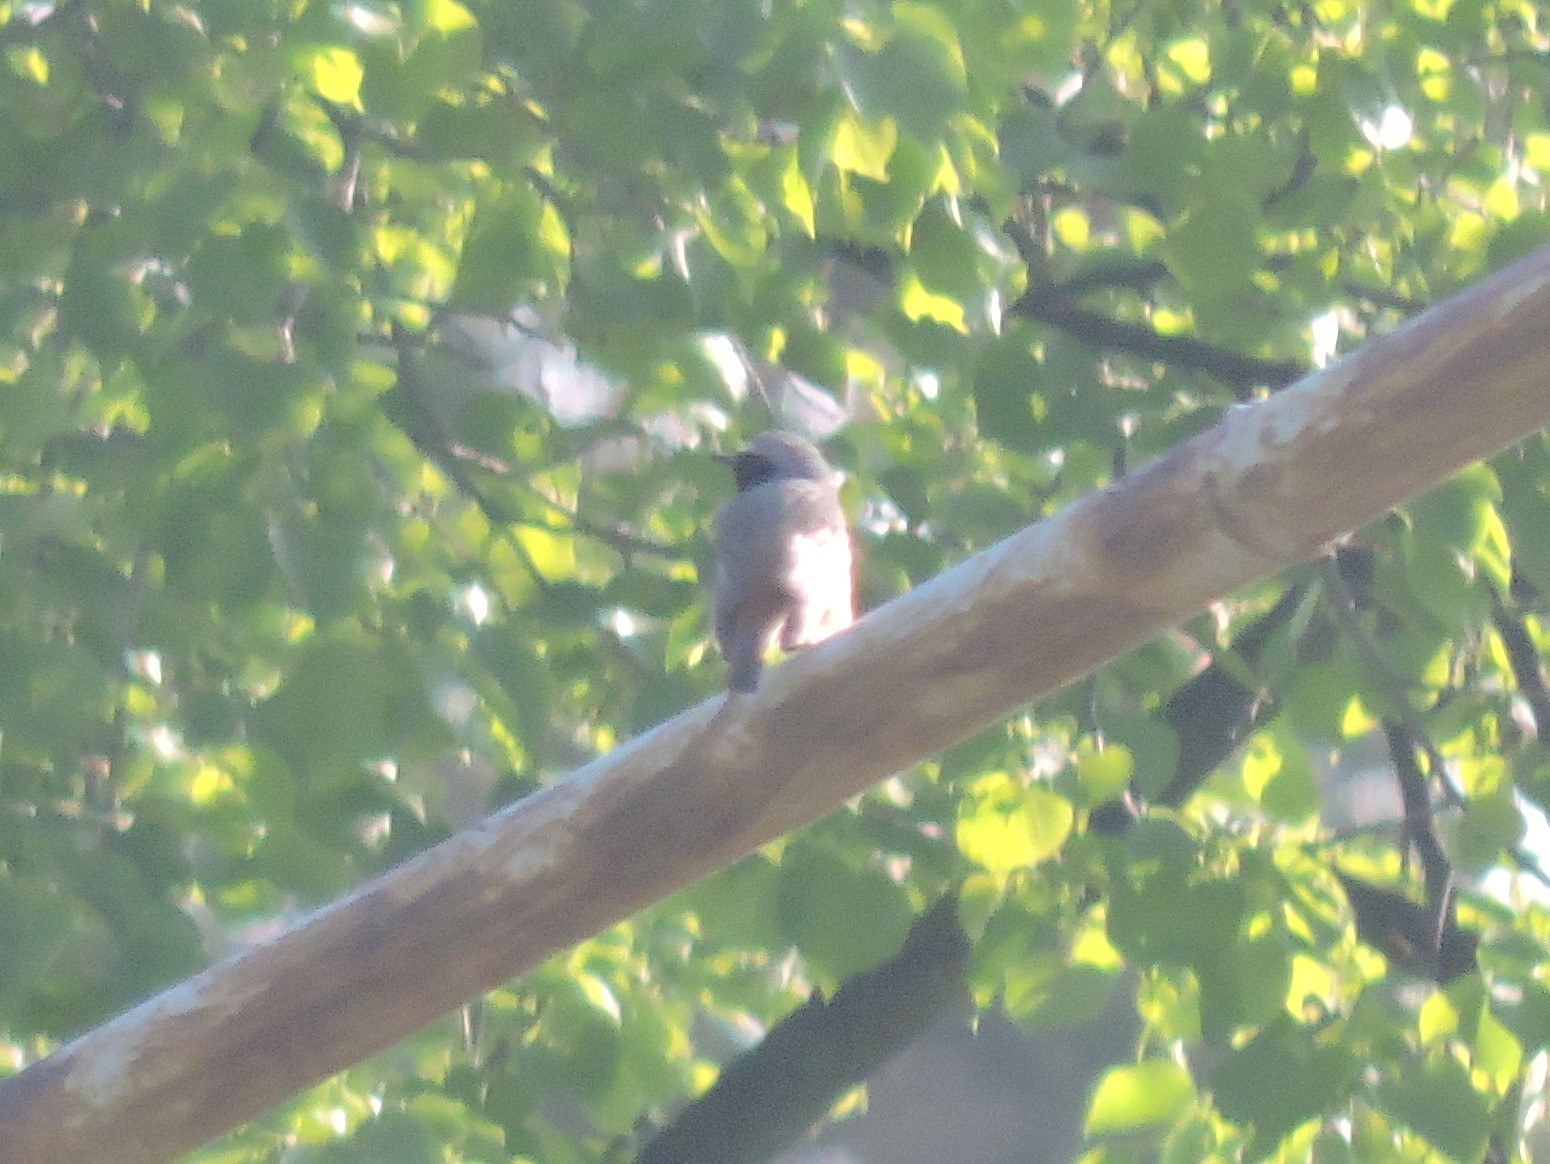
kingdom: Animalia
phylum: Chordata
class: Aves
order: Passeriformes
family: Muscicapidae
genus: Phoenicurus
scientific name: Phoenicurus phoenicurus
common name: Common redstart
